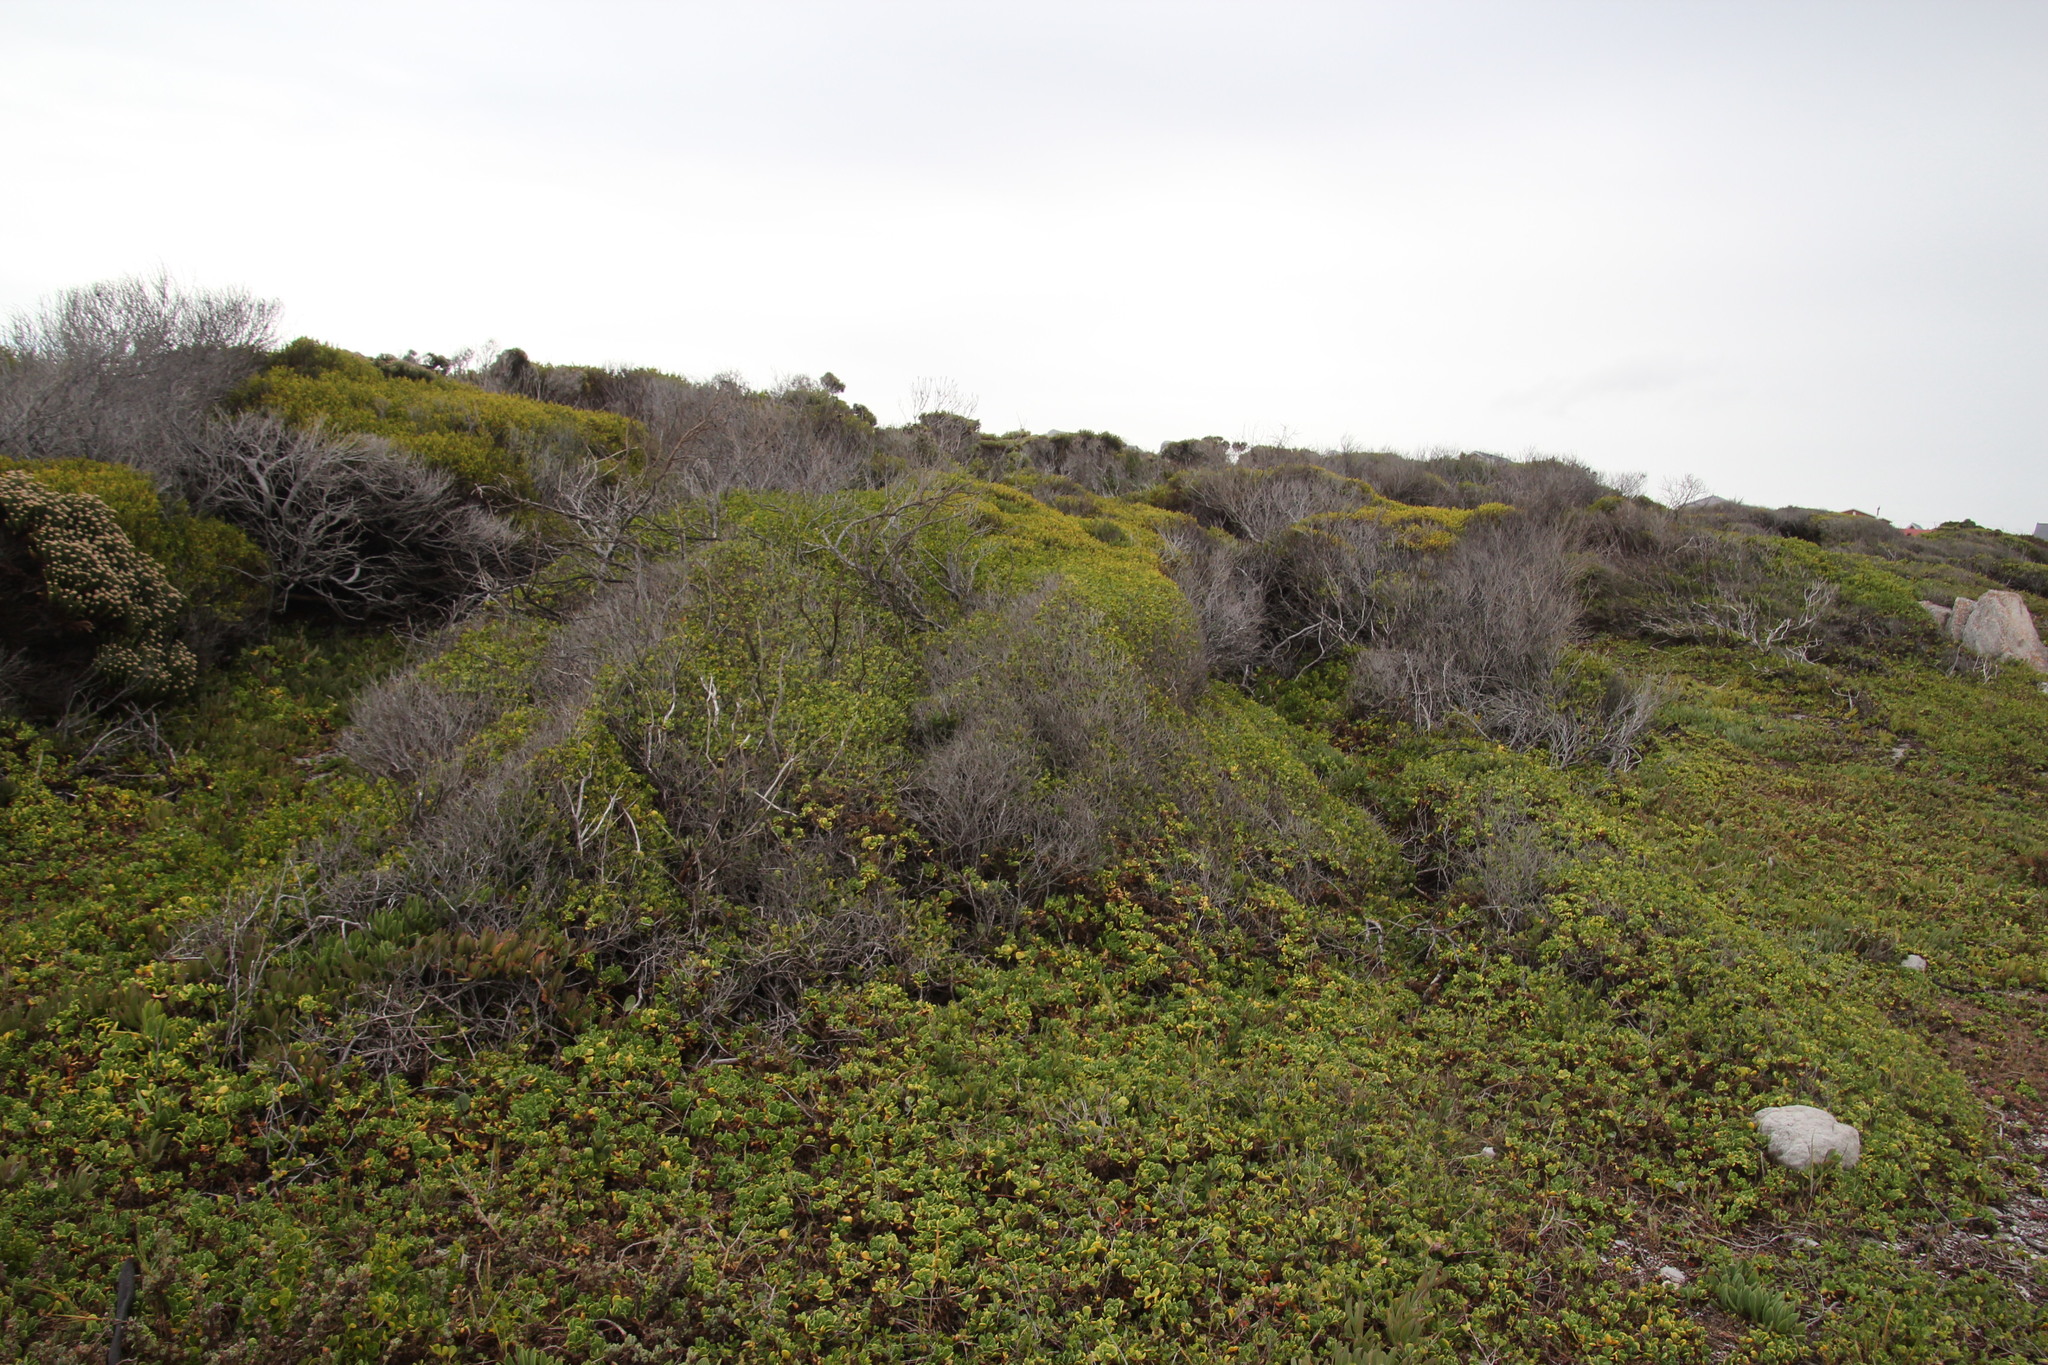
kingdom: Plantae
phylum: Tracheophyta
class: Magnoliopsida
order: Fabales
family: Fabaceae
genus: Acacia
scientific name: Acacia cyclops
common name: Coastal wattle
